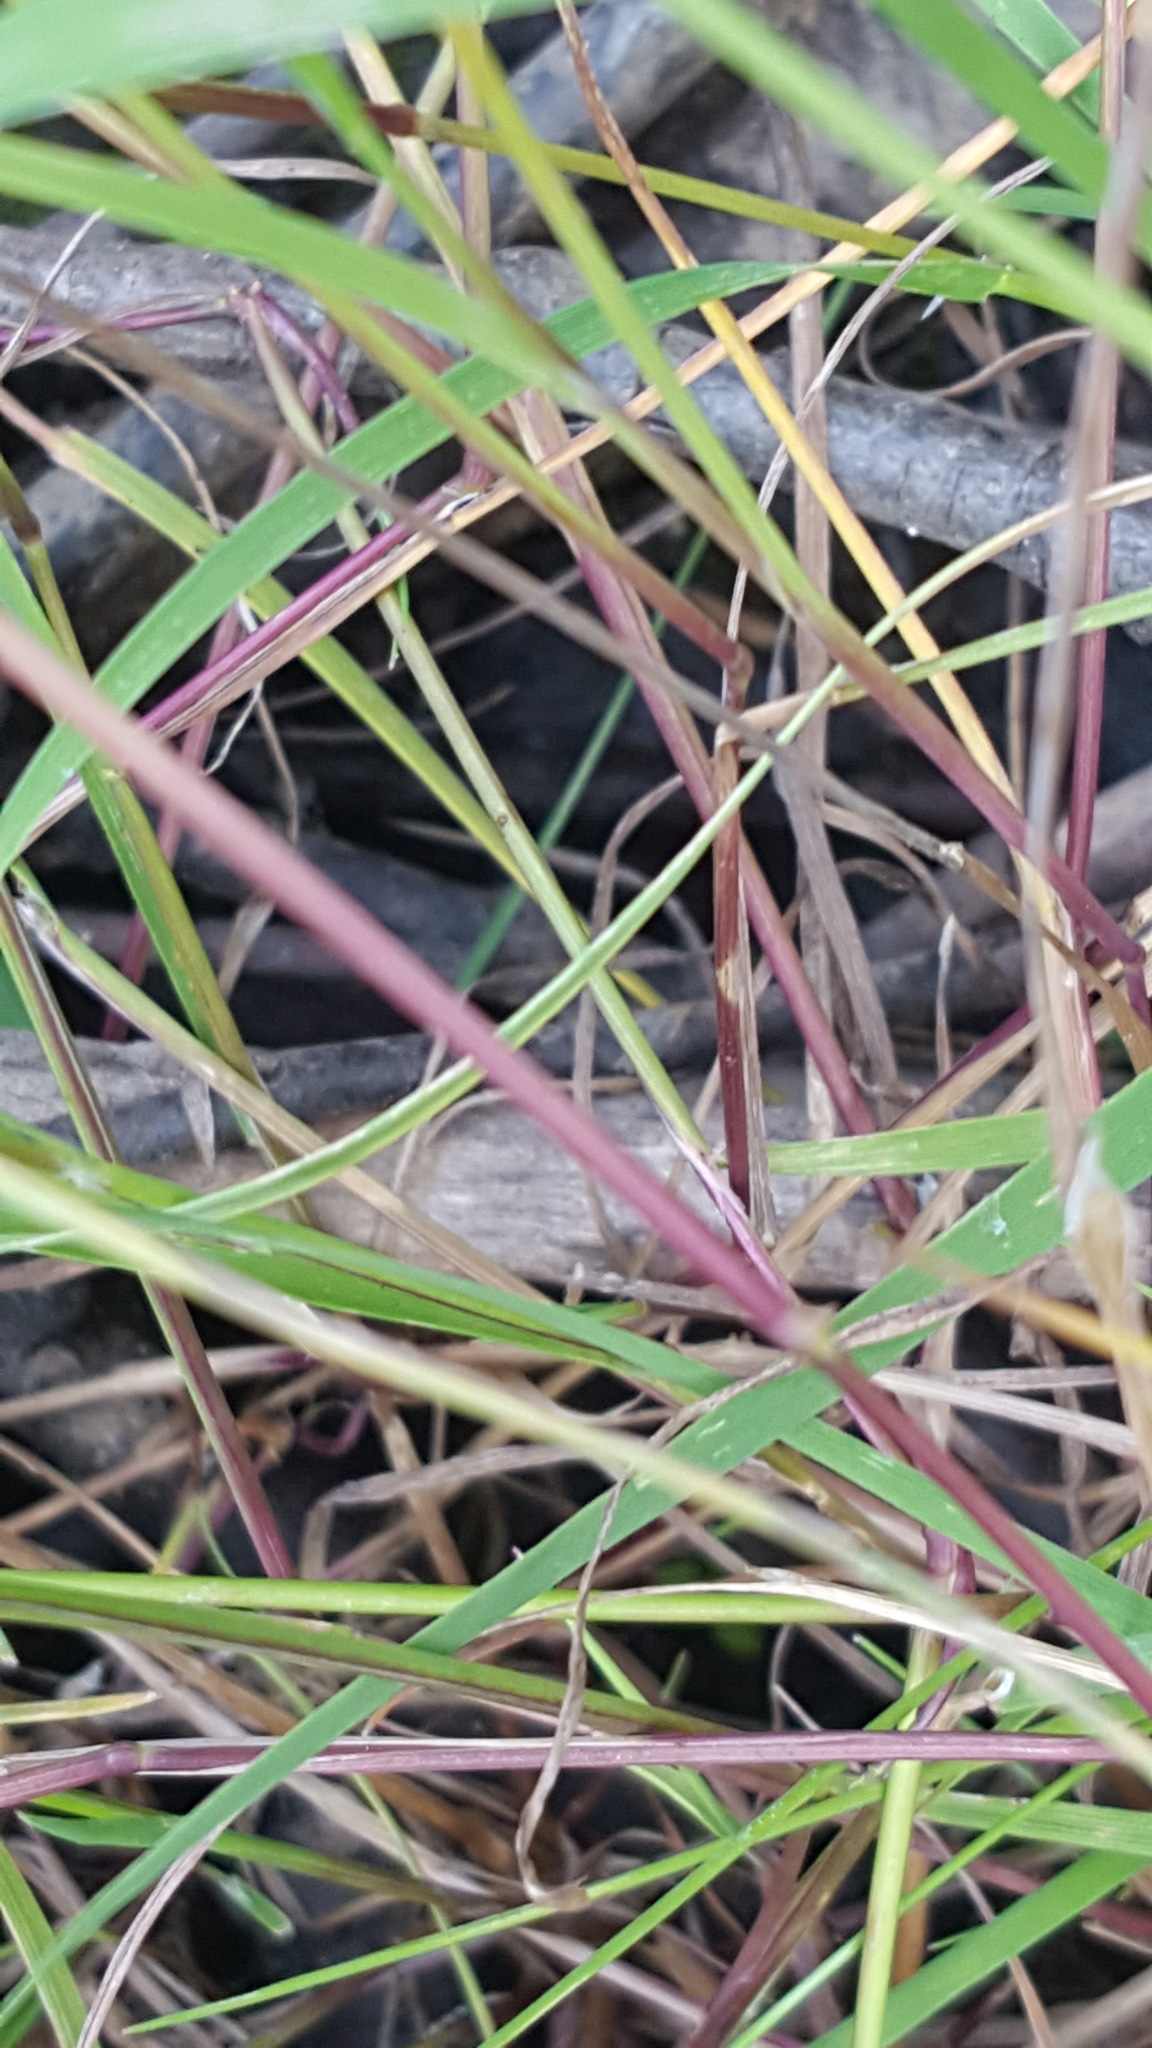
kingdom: Plantae
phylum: Tracheophyta
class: Liliopsida
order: Poales
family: Poaceae
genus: Torreyochloa
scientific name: Torreyochloa pallida
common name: Pale false mannagrass
